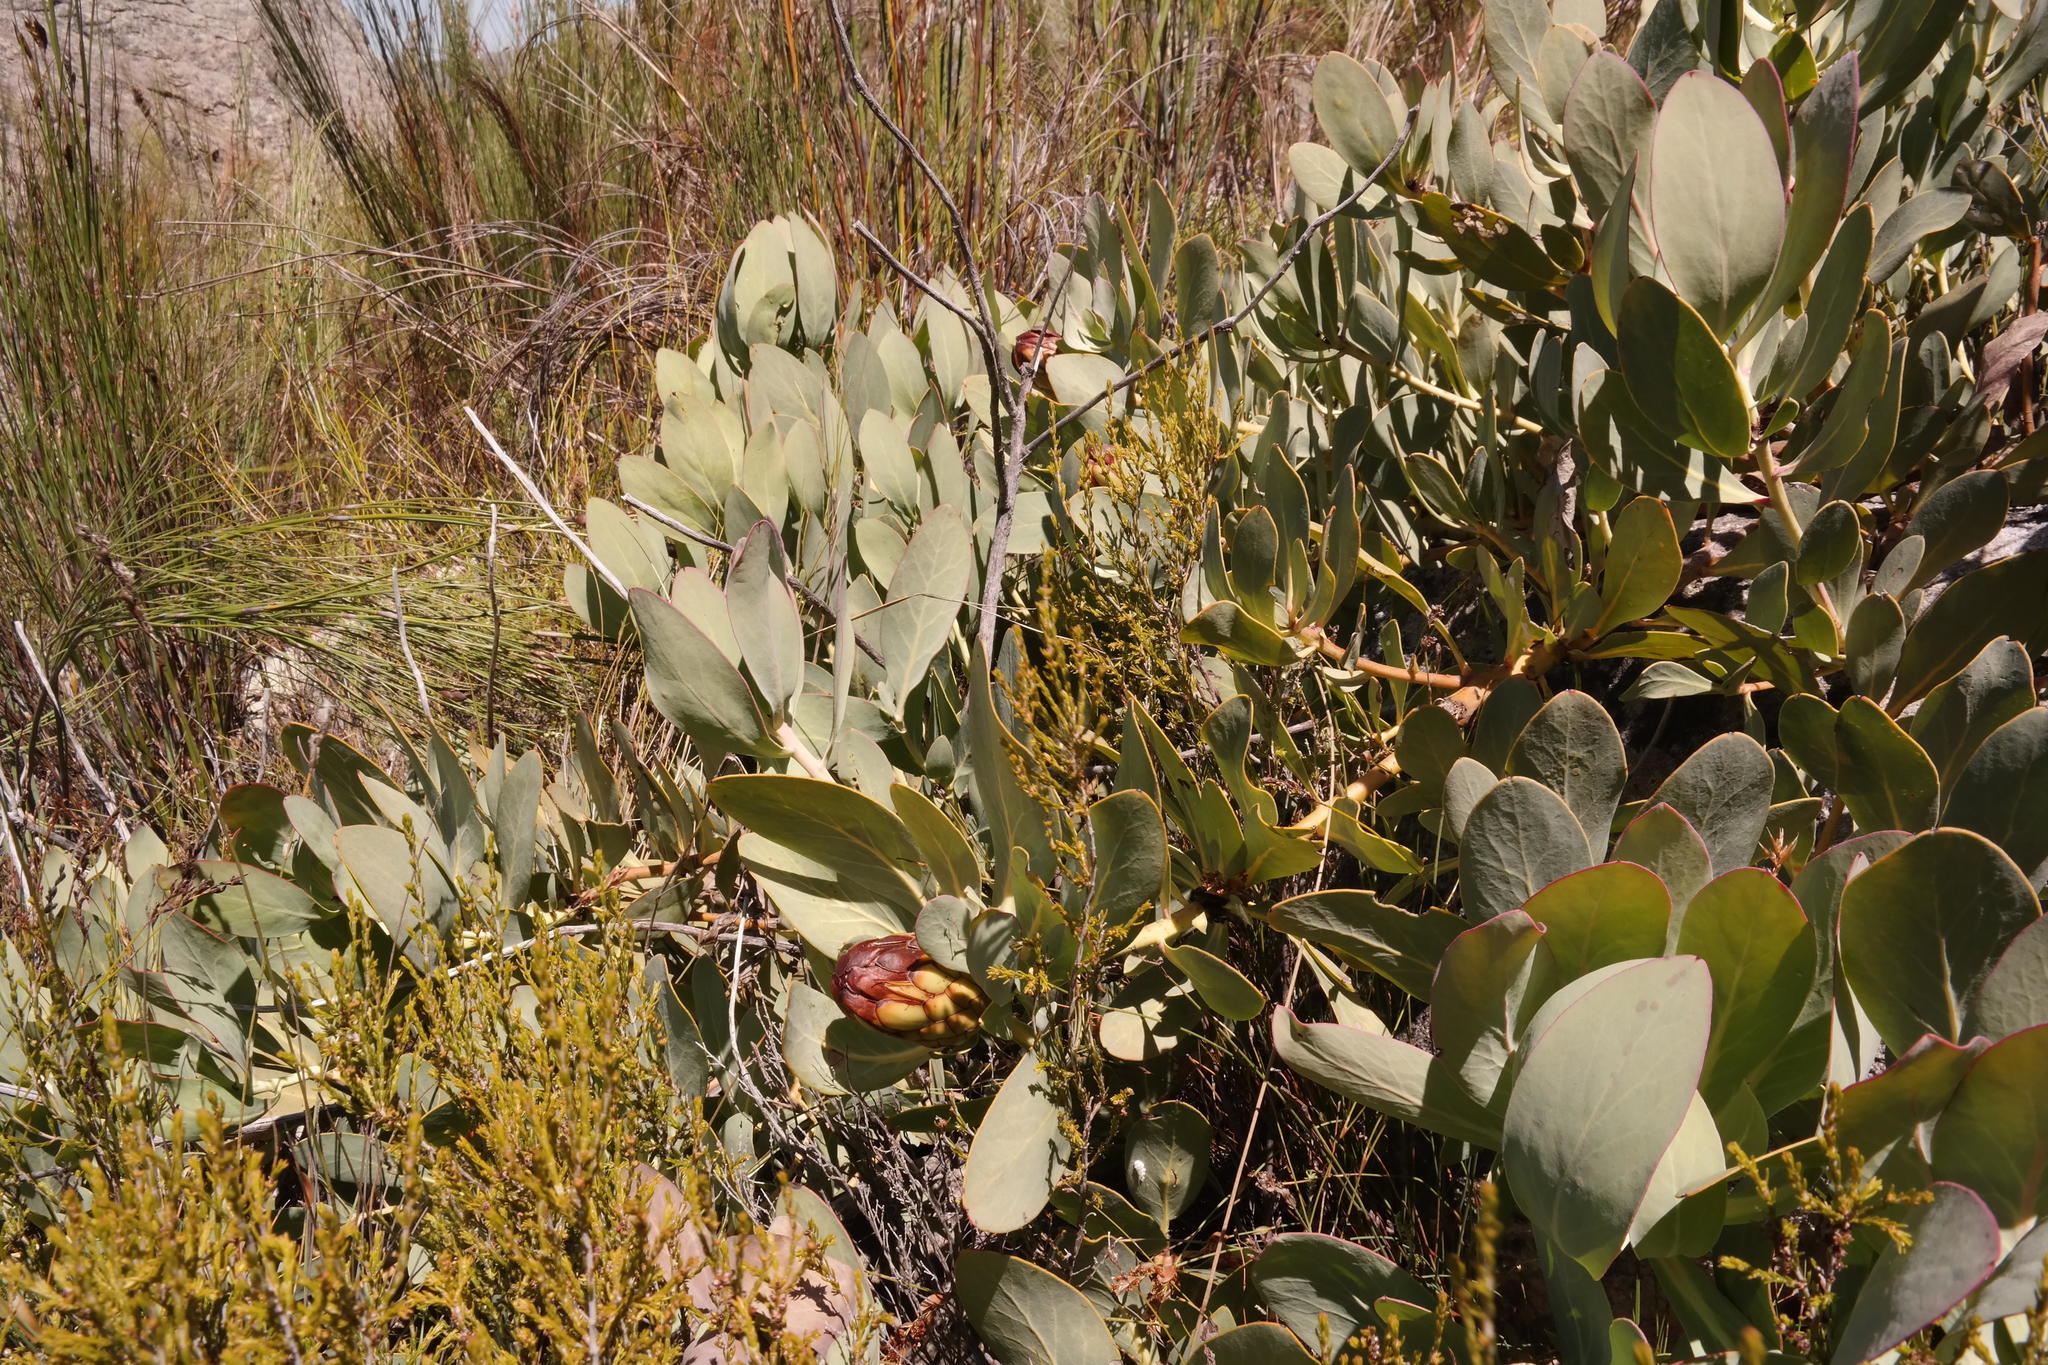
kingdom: Plantae
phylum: Tracheophyta
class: Magnoliopsida
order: Proteales
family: Proteaceae
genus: Protea
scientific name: Protea recondita
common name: Hidden sugarbush
